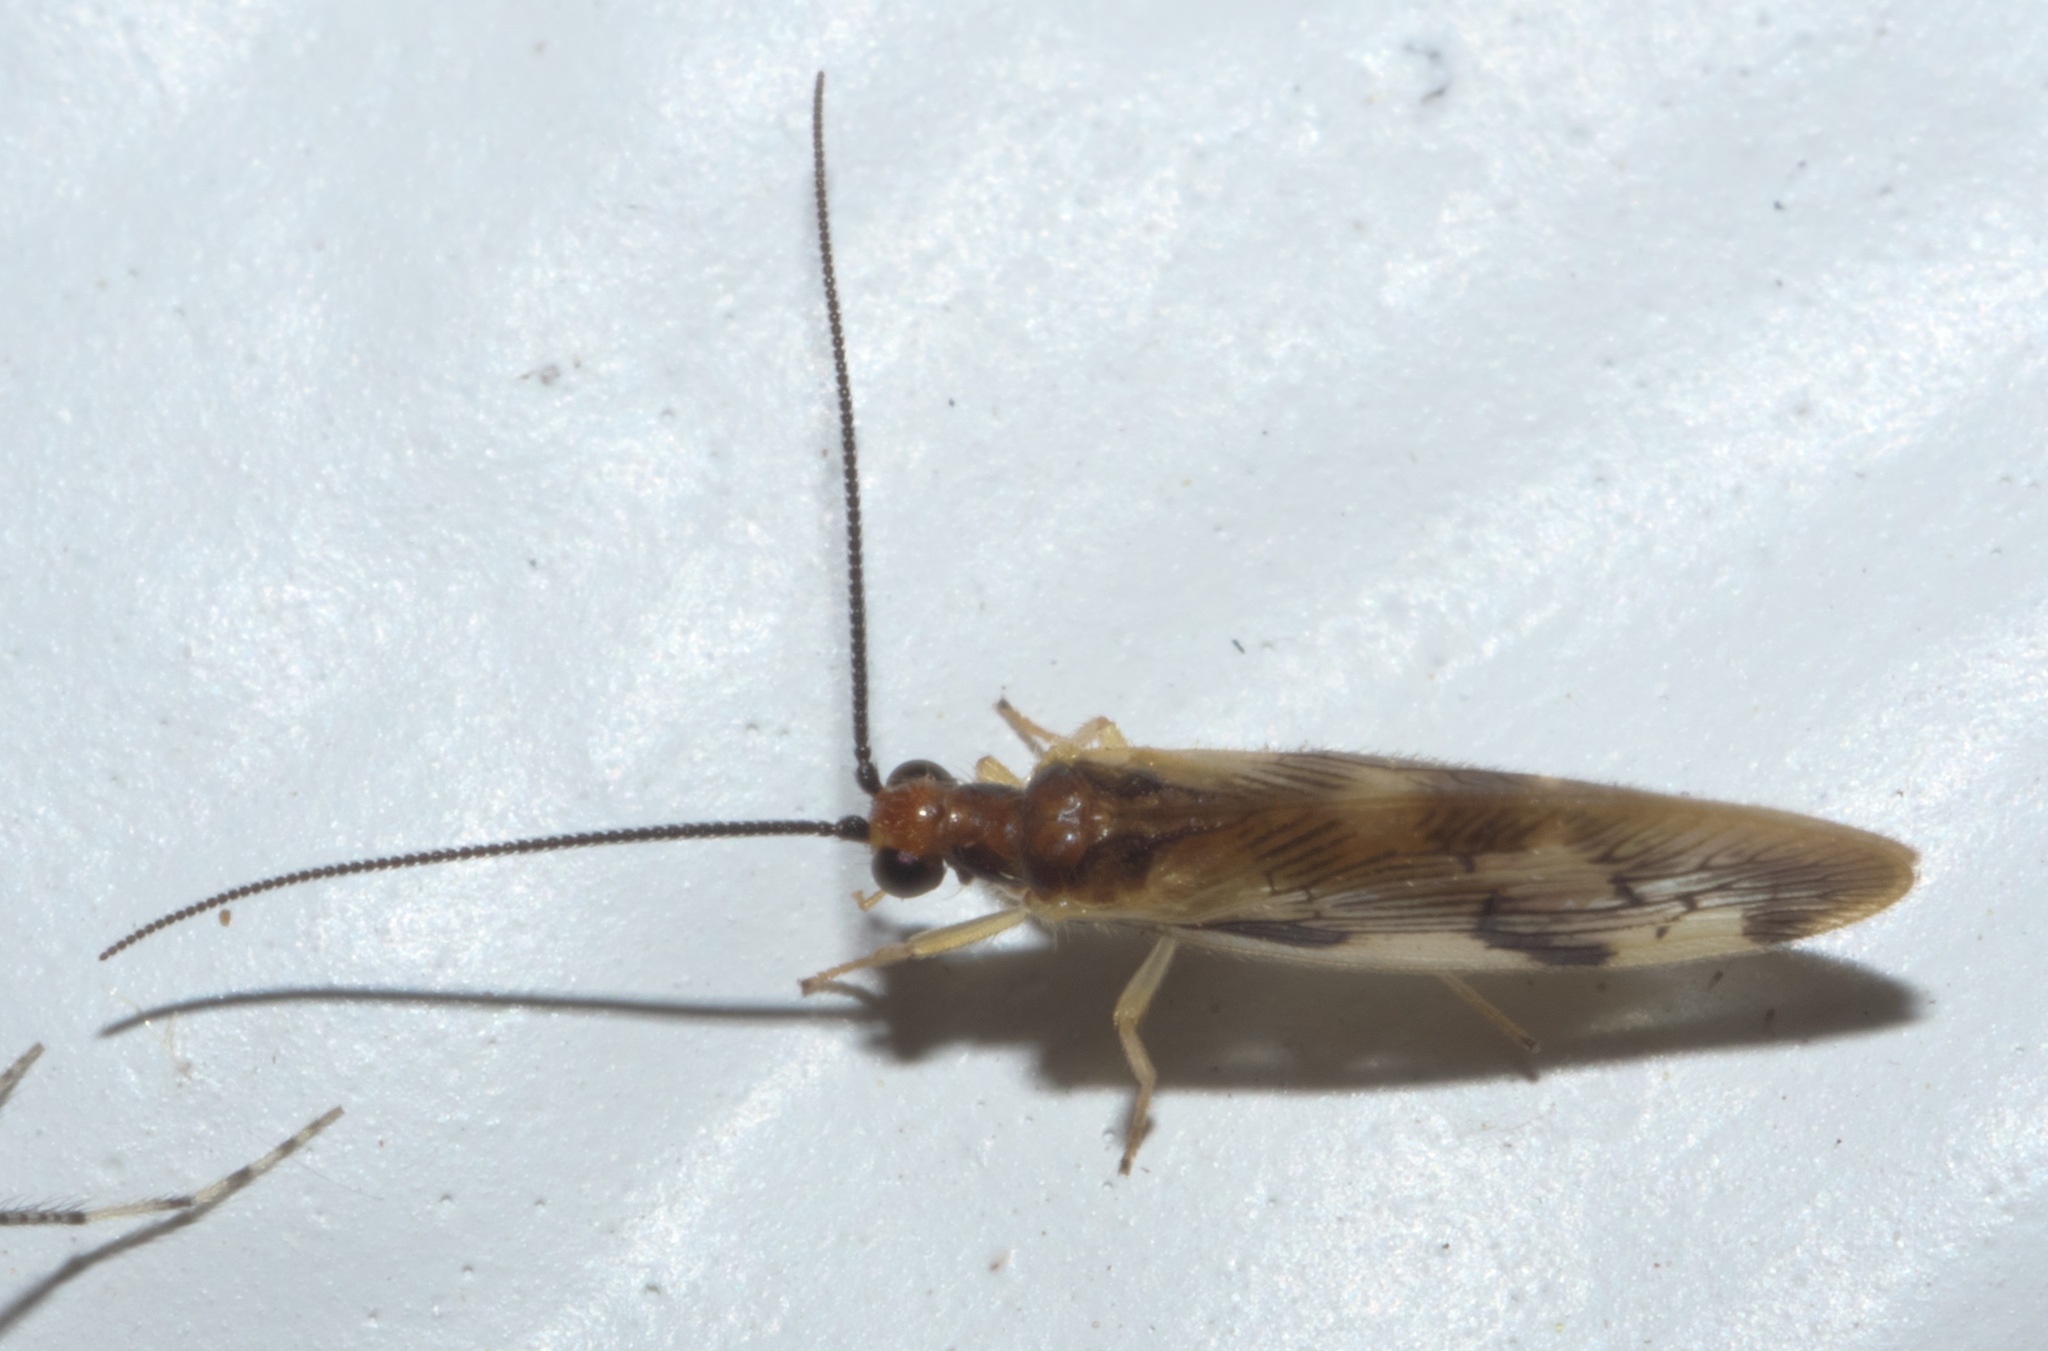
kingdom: Animalia
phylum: Arthropoda
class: Insecta
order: Neuroptera
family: Sisyridae
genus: Climacia
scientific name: Climacia areolaris
